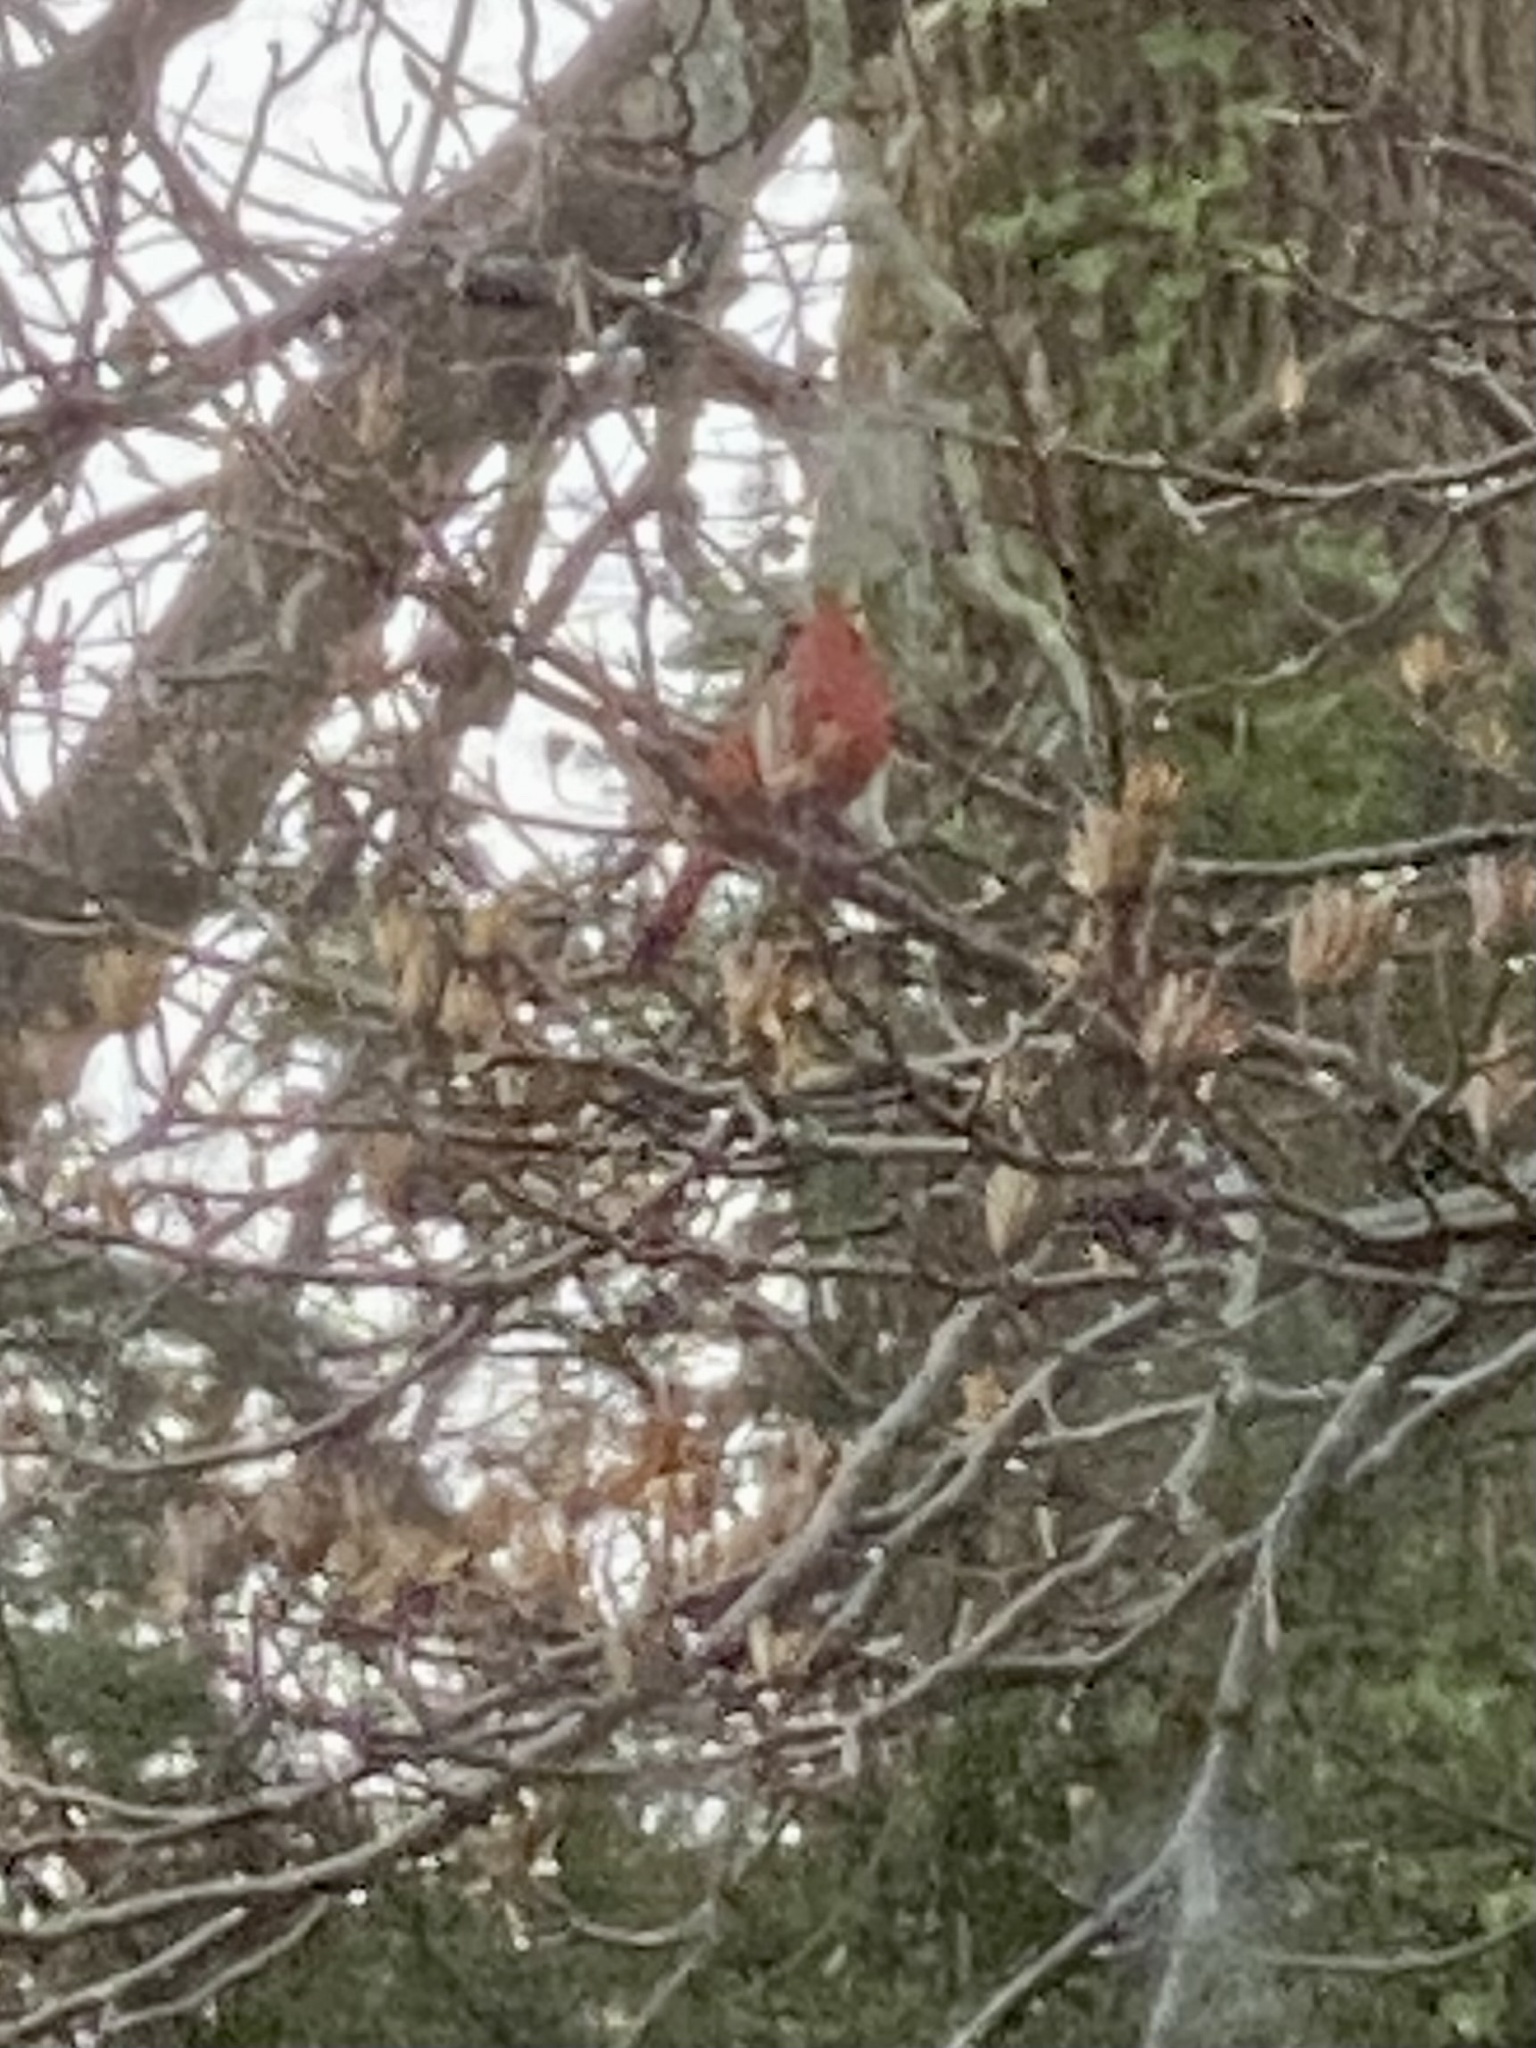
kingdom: Animalia
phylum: Chordata
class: Aves
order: Passeriformes
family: Cardinalidae
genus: Cardinalis
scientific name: Cardinalis cardinalis
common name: Northern cardinal
